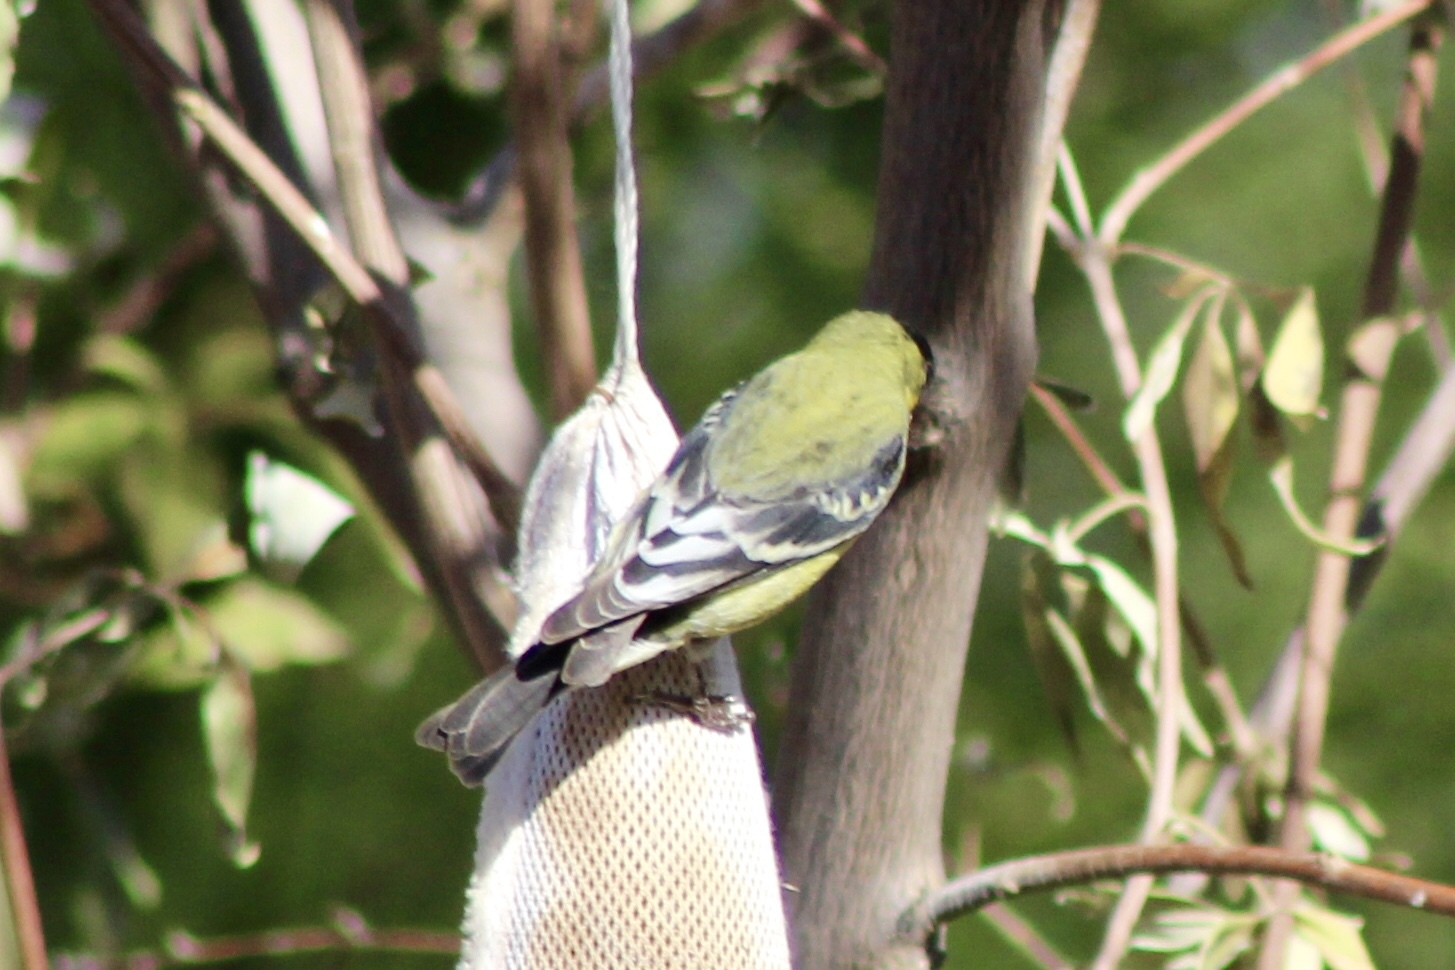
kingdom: Animalia
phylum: Chordata
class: Aves
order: Passeriformes
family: Fringillidae
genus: Spinus
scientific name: Spinus psaltria
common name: Lesser goldfinch
